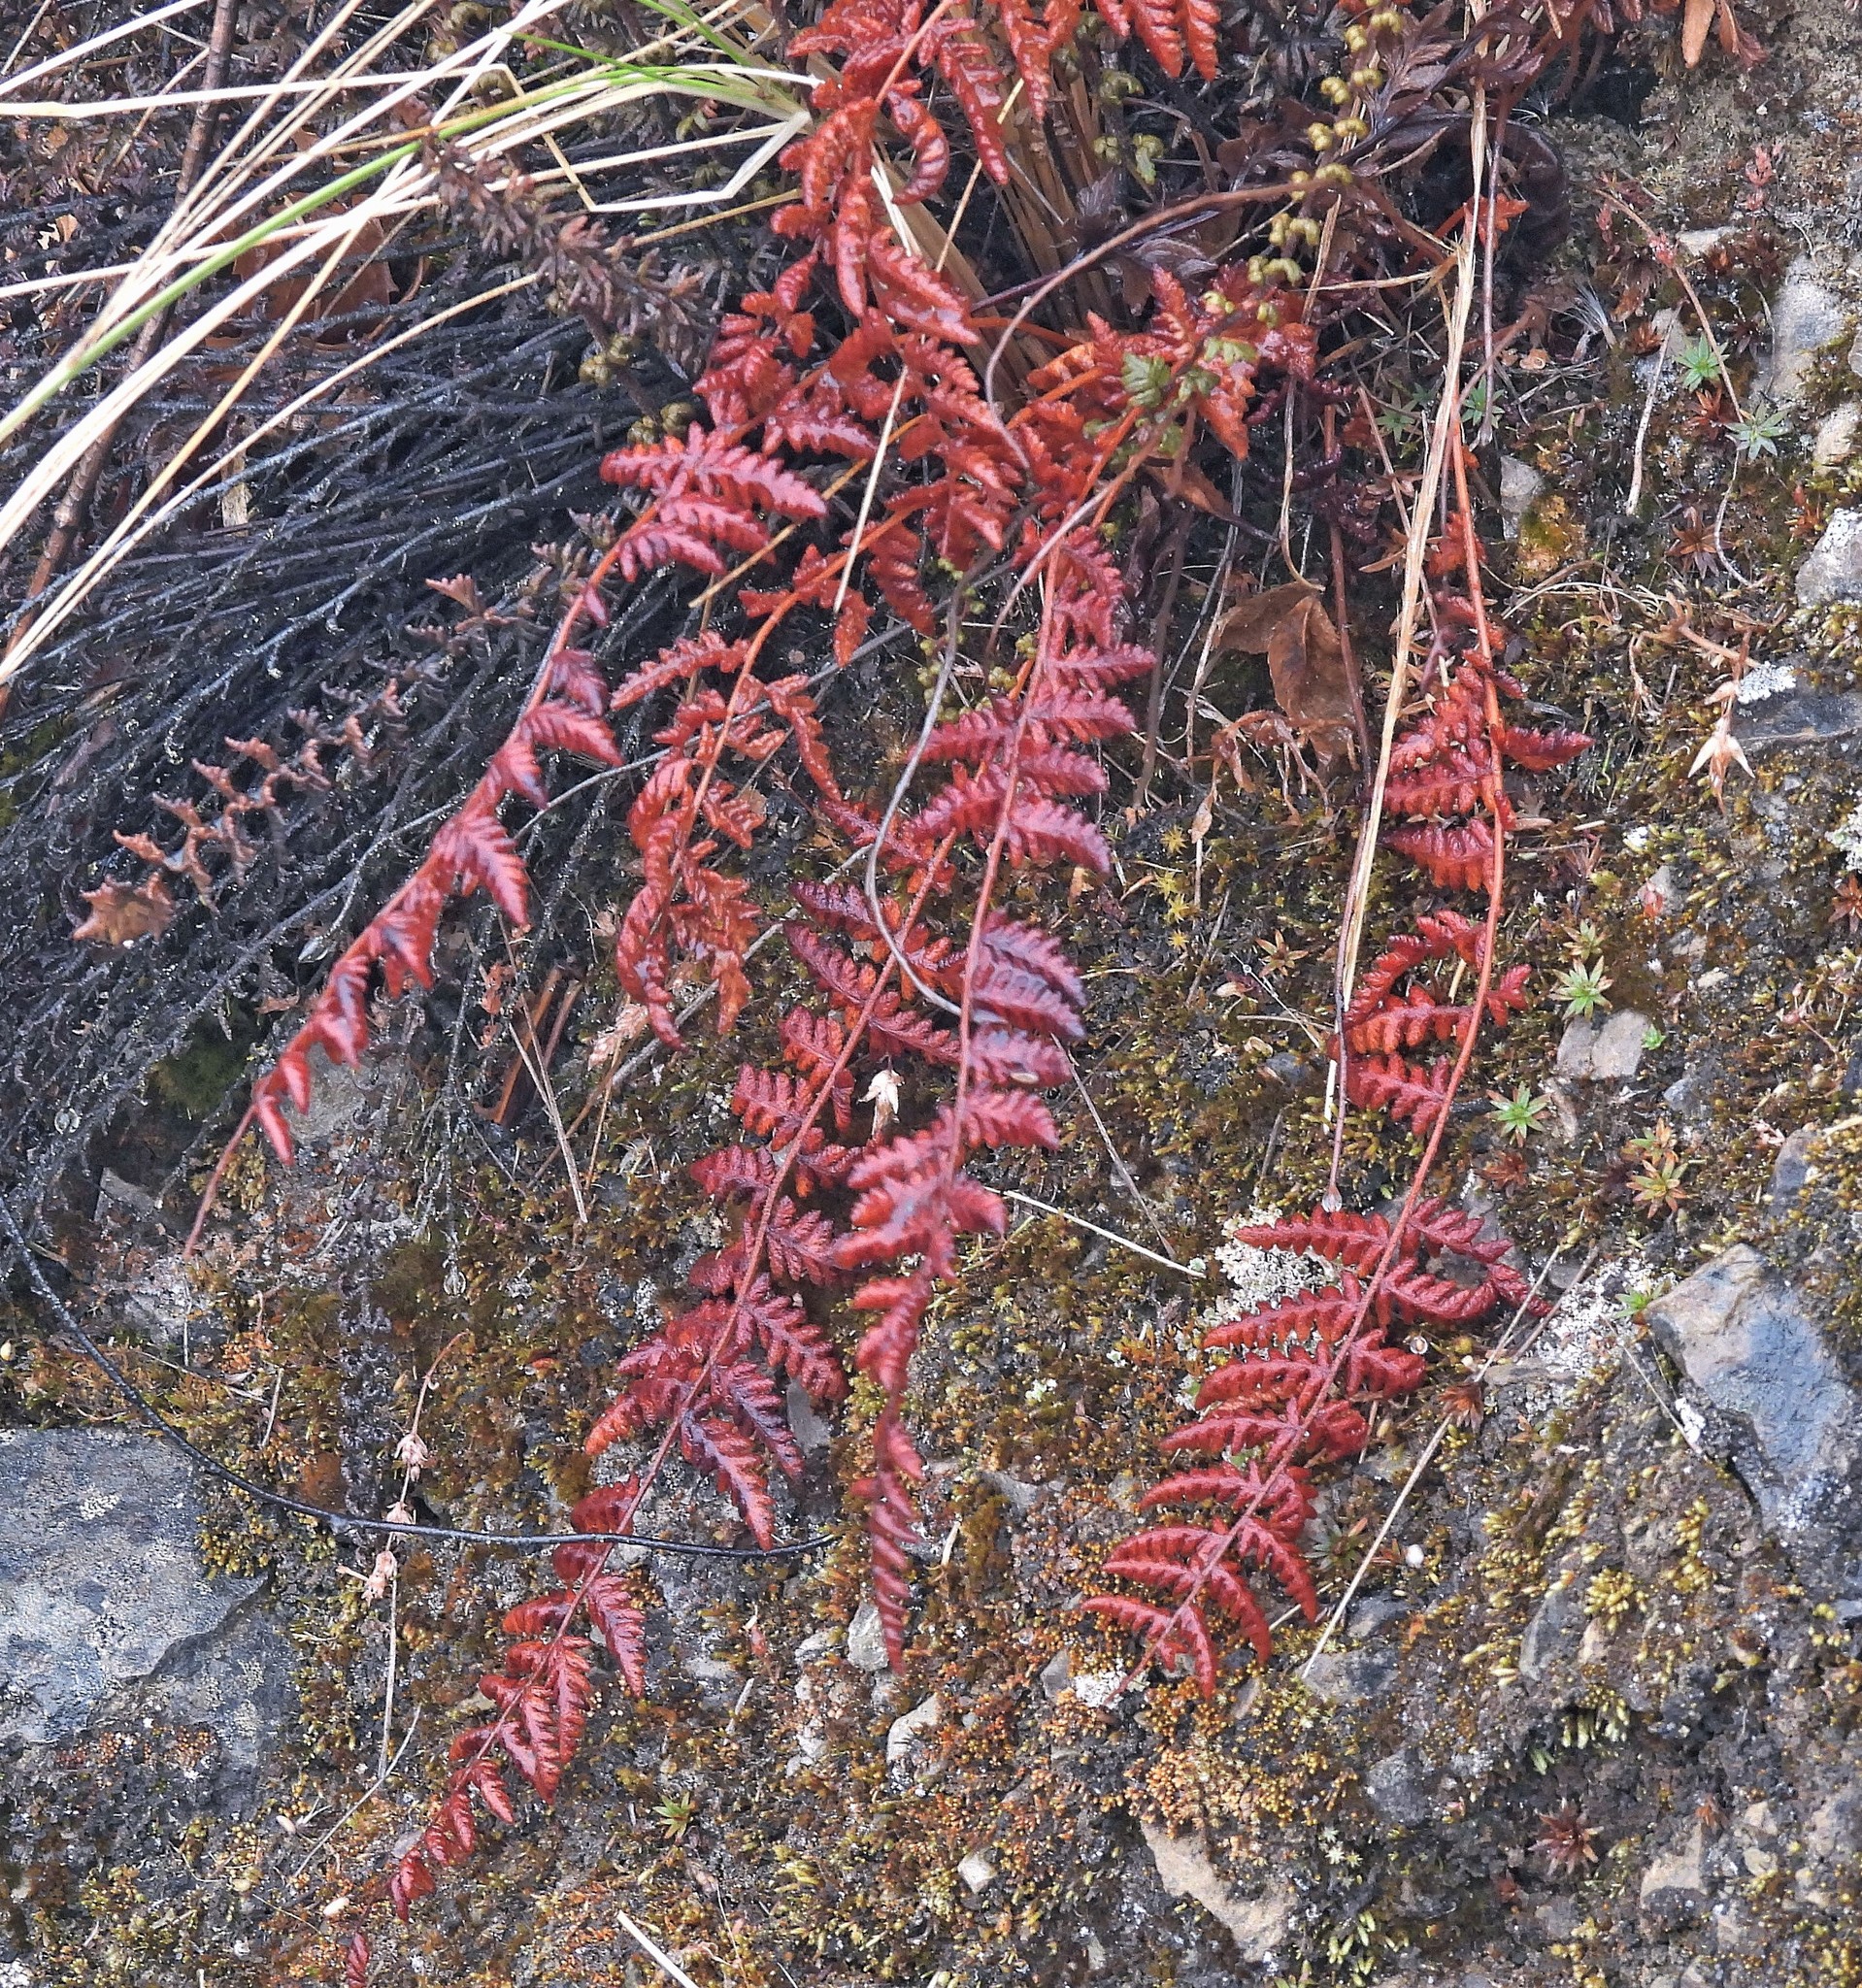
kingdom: Plantae
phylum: Tracheophyta
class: Polypodiopsida
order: Polypodiales
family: Pteridaceae
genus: Myriopteris
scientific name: Myriopteris aurea
